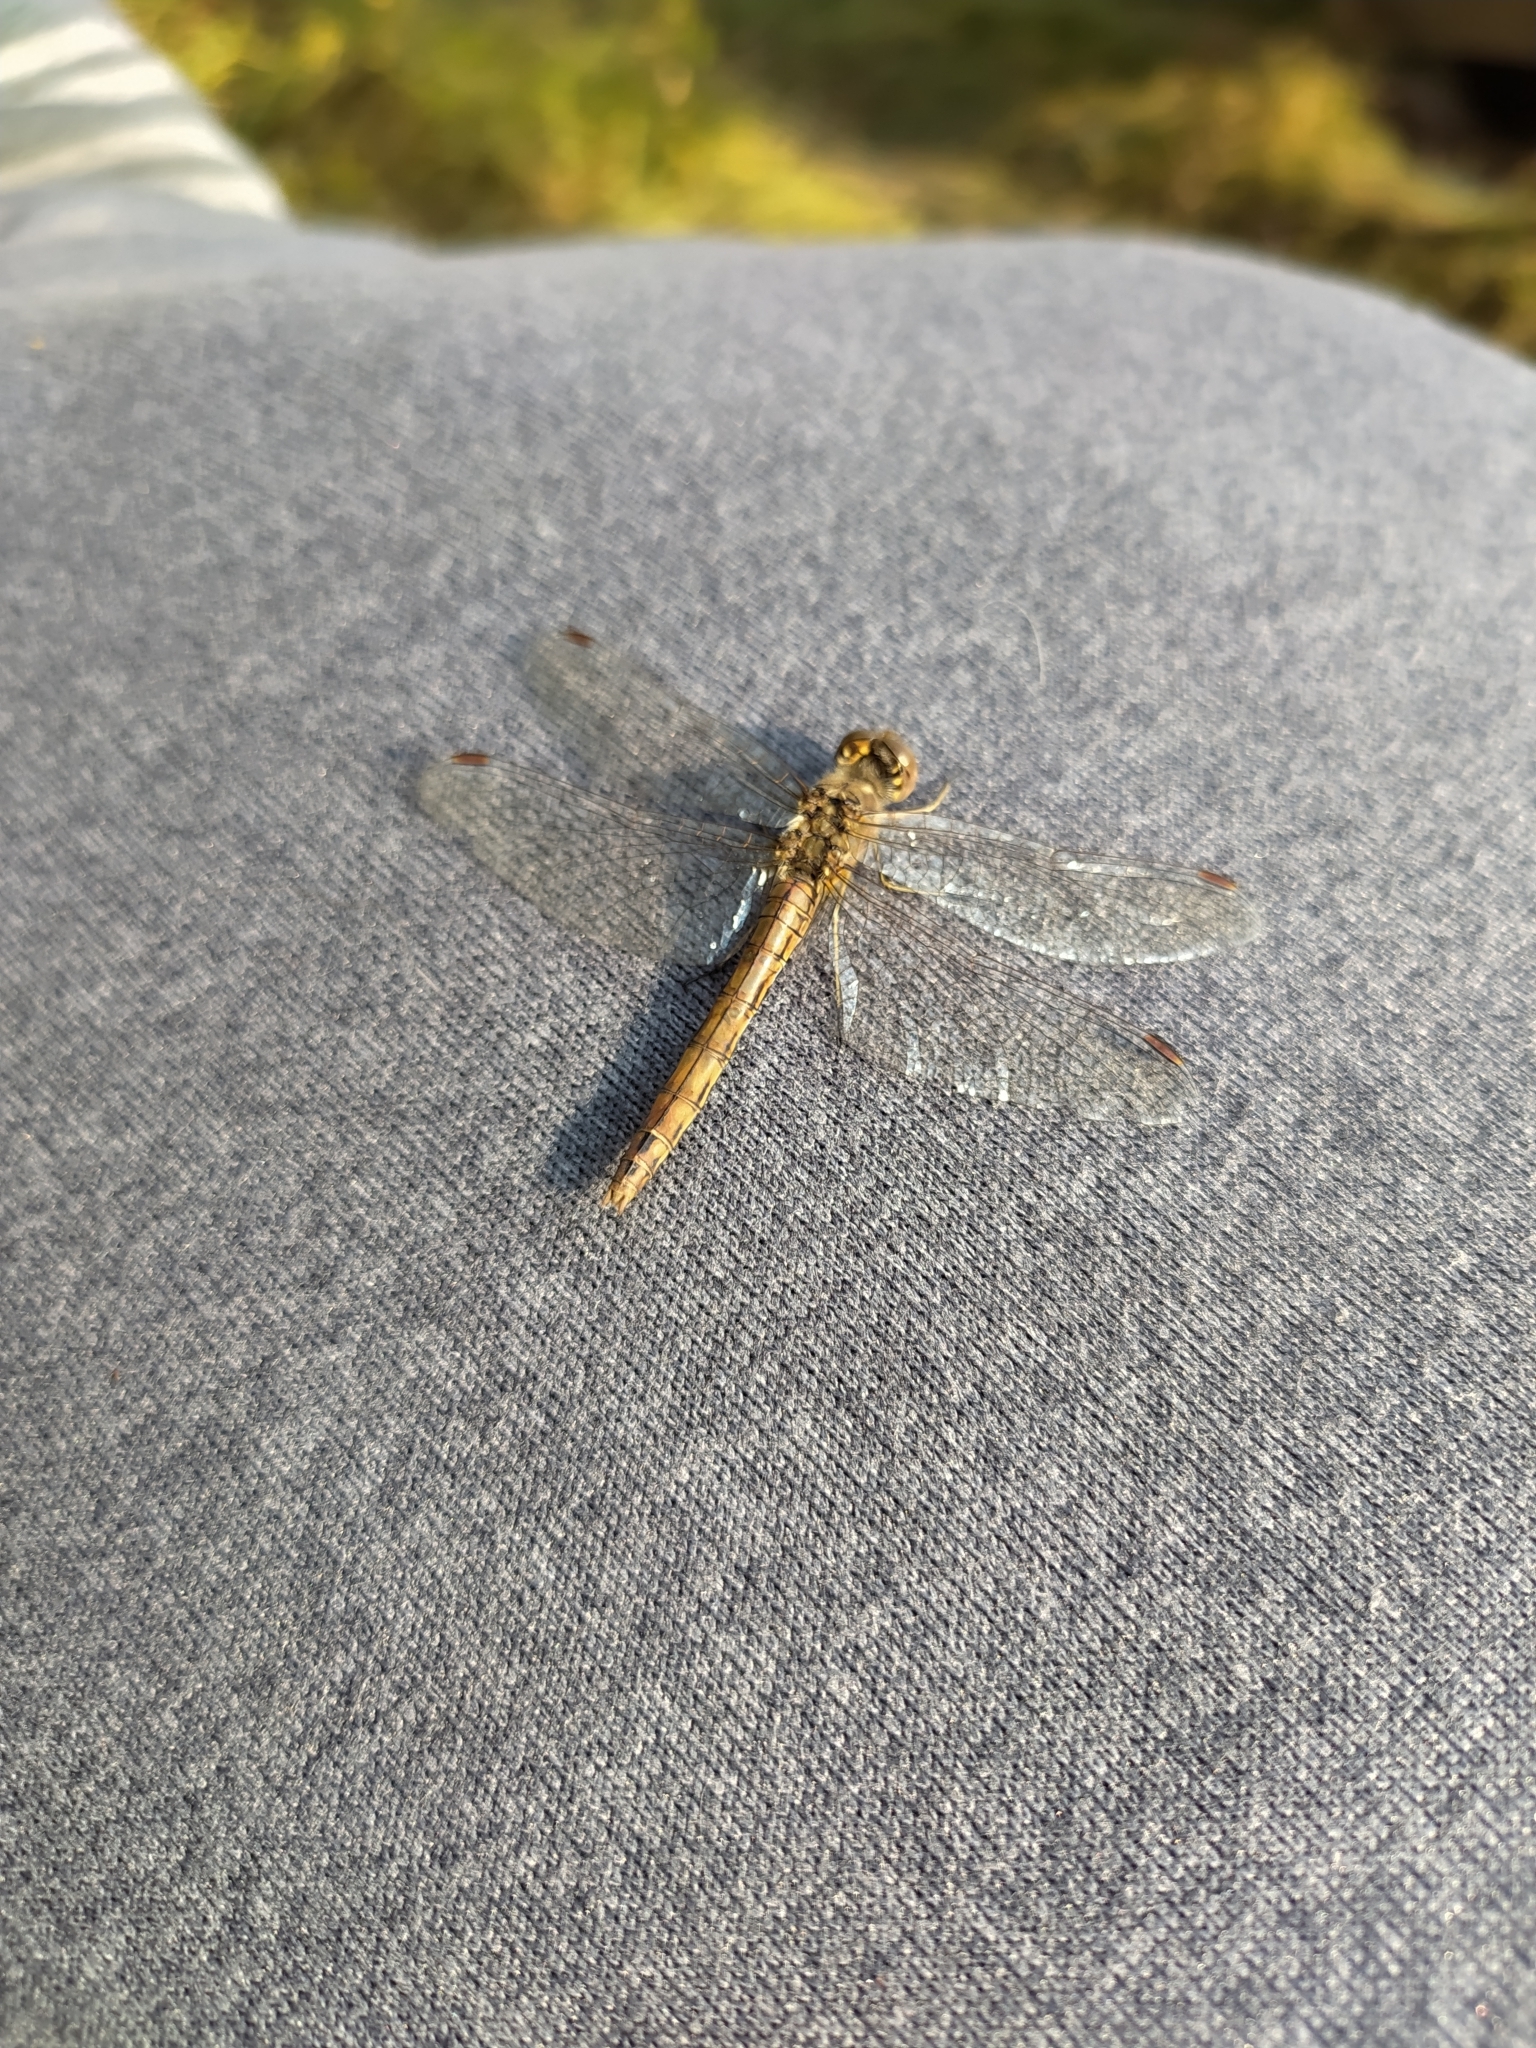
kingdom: Animalia
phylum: Arthropoda
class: Insecta
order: Odonata
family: Libellulidae
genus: Sympetrum
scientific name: Sympetrum vulgatum
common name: Vagrant darter
